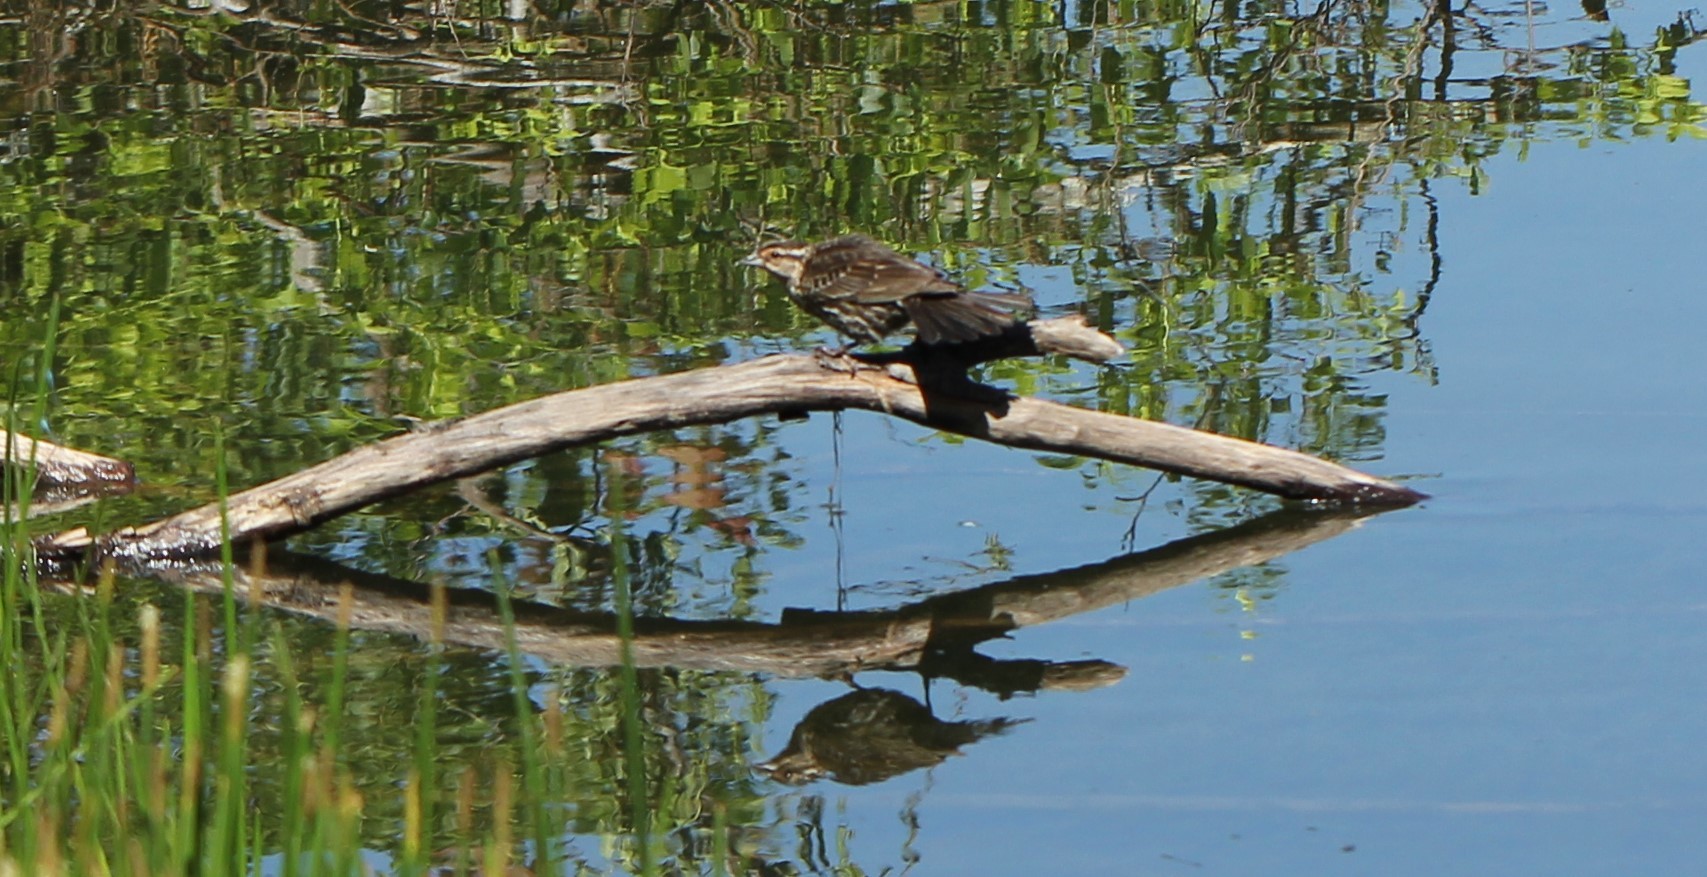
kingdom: Animalia
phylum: Chordata
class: Aves
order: Passeriformes
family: Icteridae
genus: Agelaius
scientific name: Agelaius phoeniceus
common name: Red-winged blackbird
